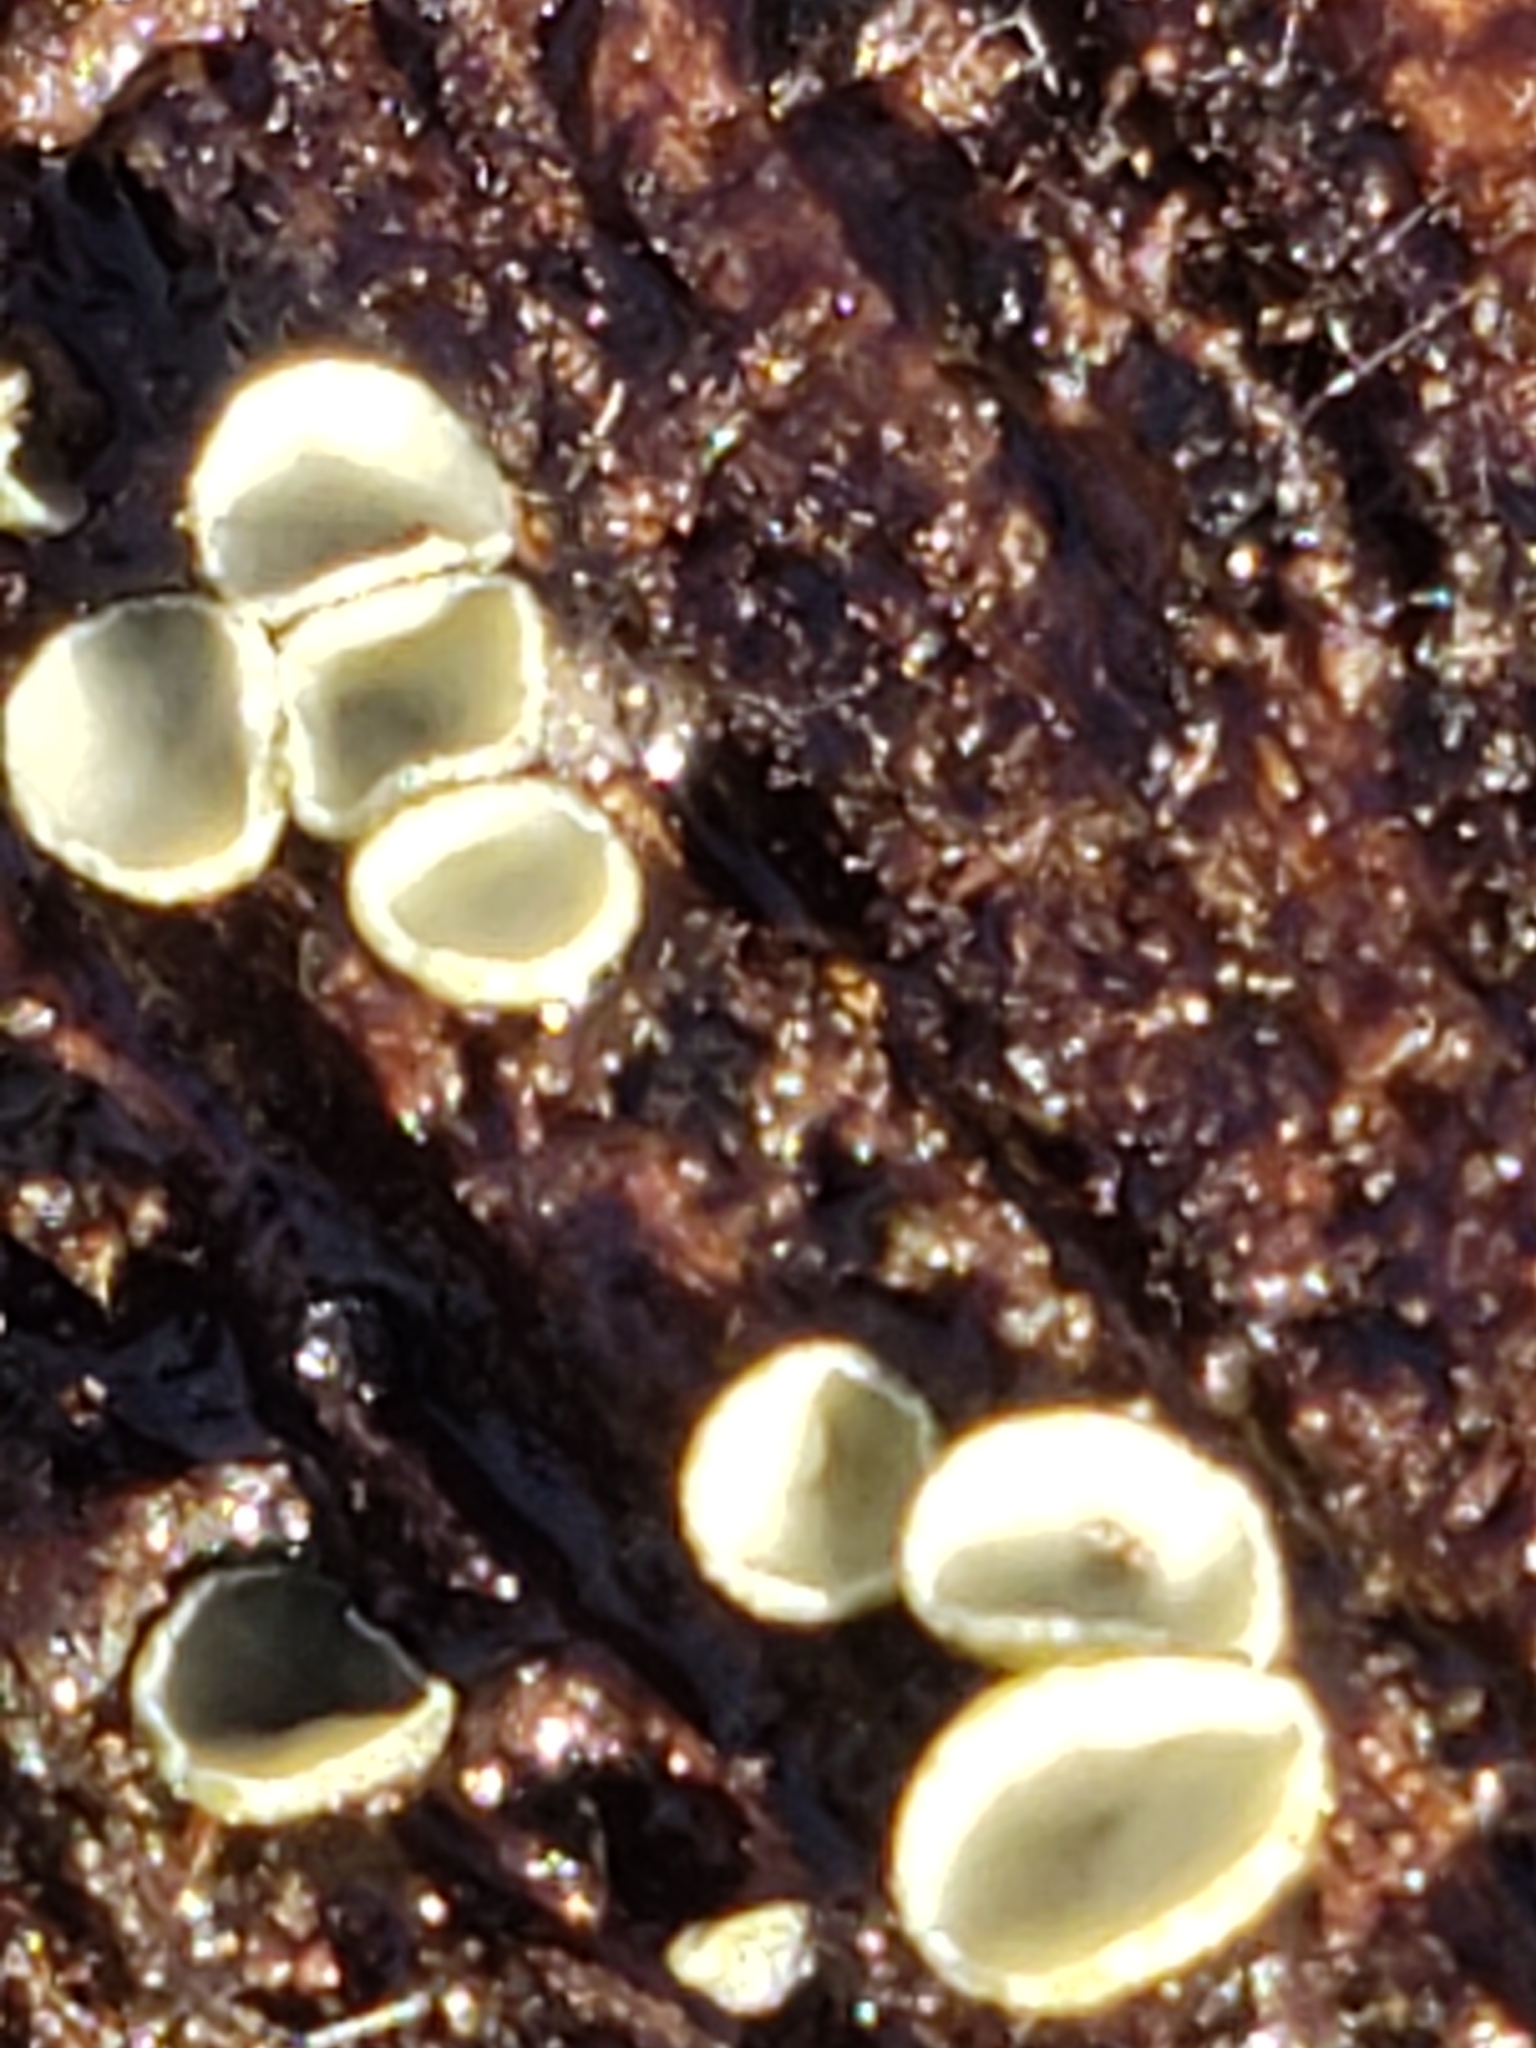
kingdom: Fungi
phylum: Ascomycota
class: Leotiomycetes
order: Helotiales
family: Chlorospleniaceae
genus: Chlorosplenium
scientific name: Chlorosplenium chlora
